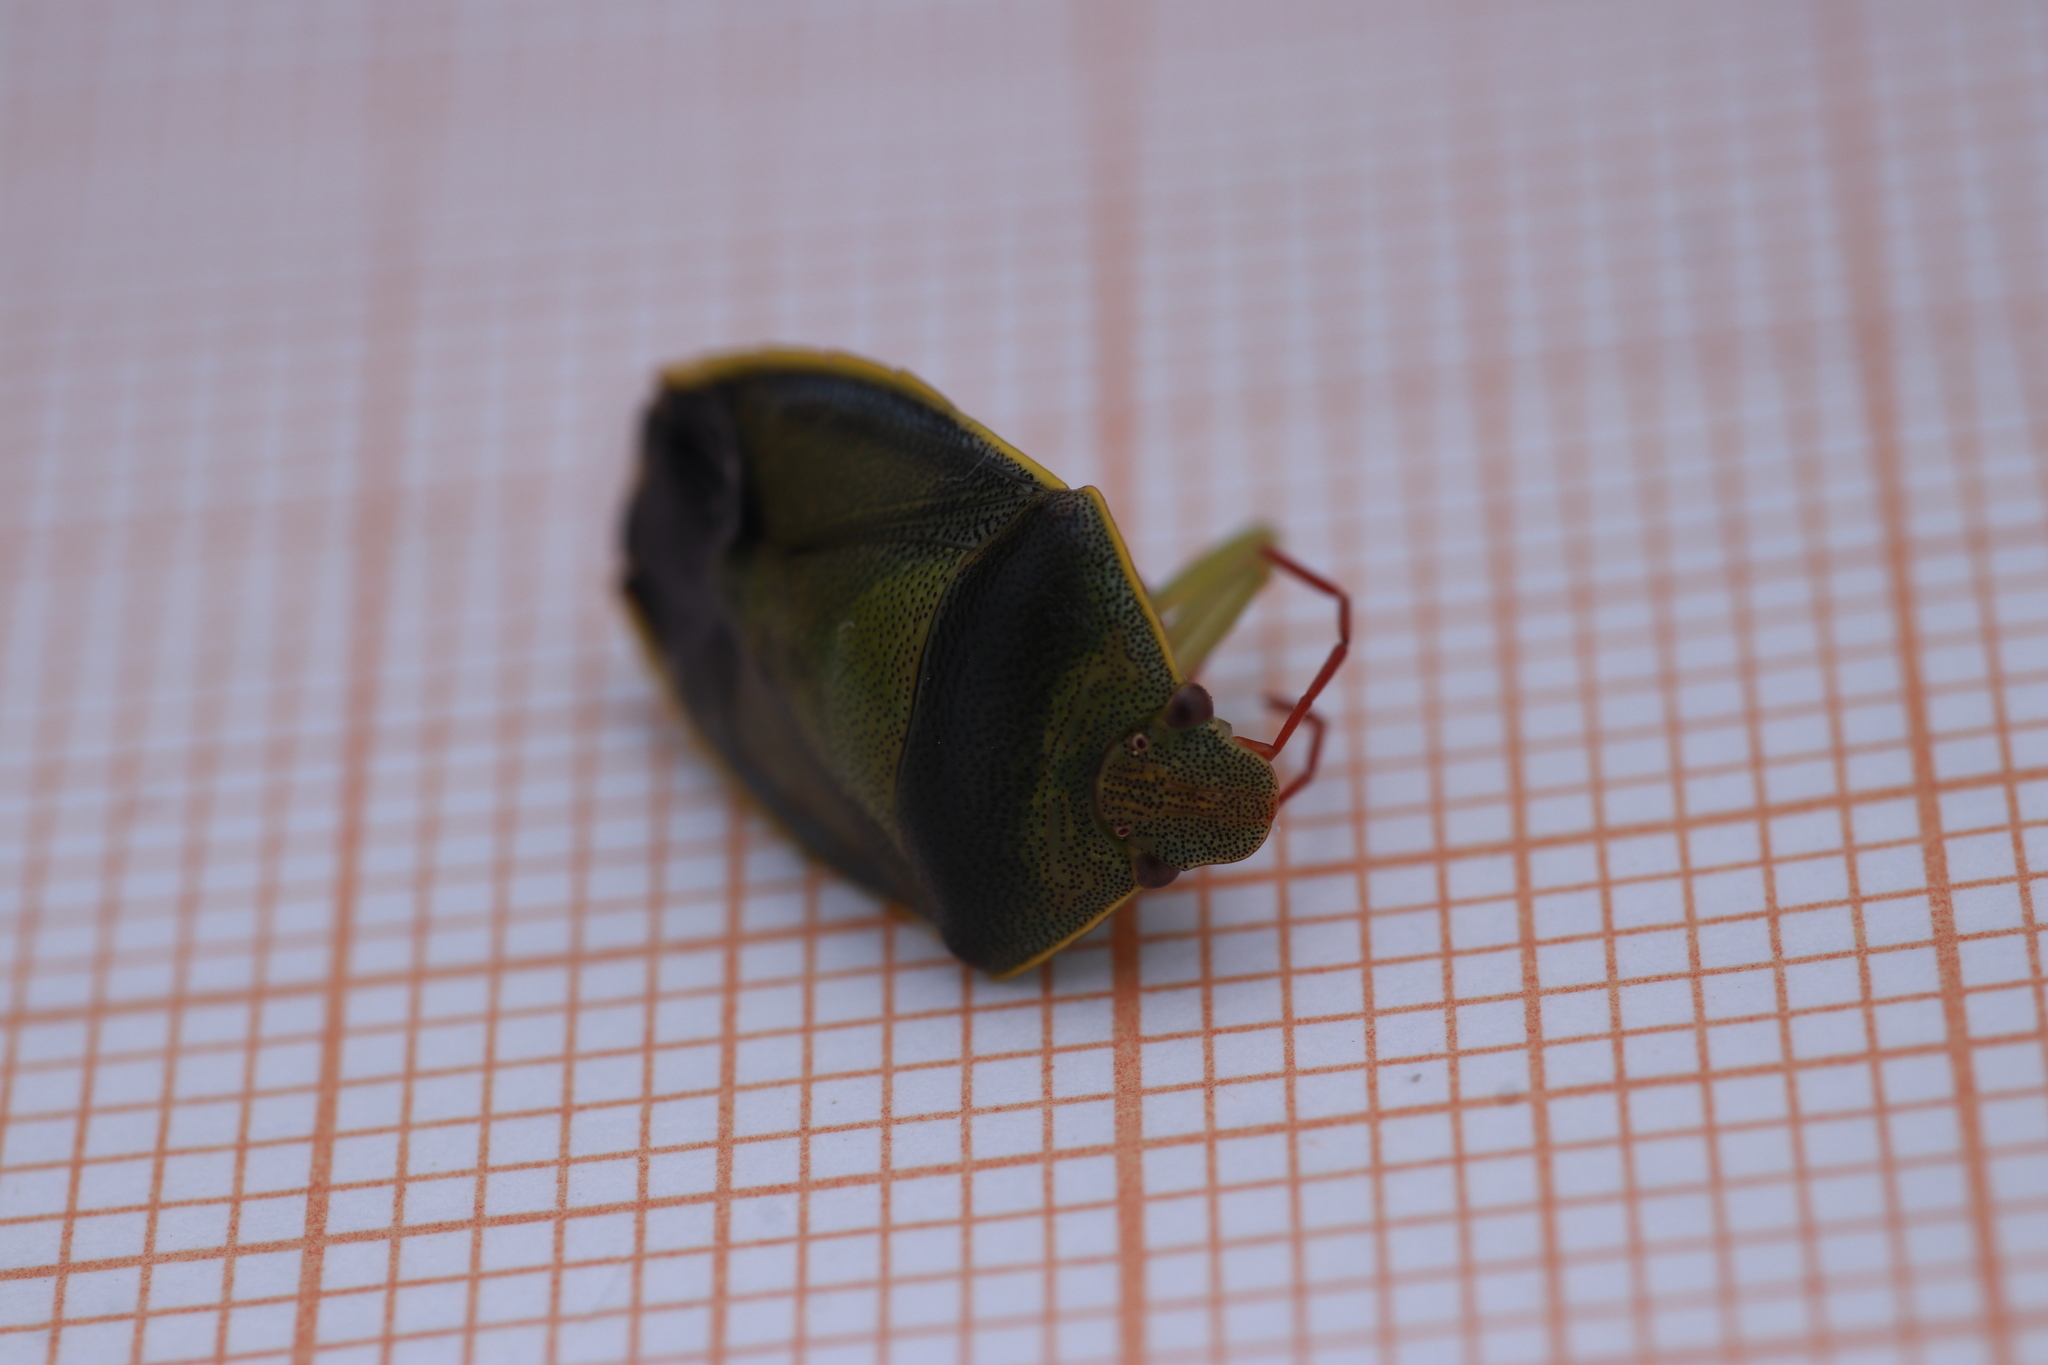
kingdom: Animalia
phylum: Arthropoda
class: Insecta
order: Hemiptera
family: Pentatomidae
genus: Piezodorus
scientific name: Piezodorus lituratus
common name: Stink bug
